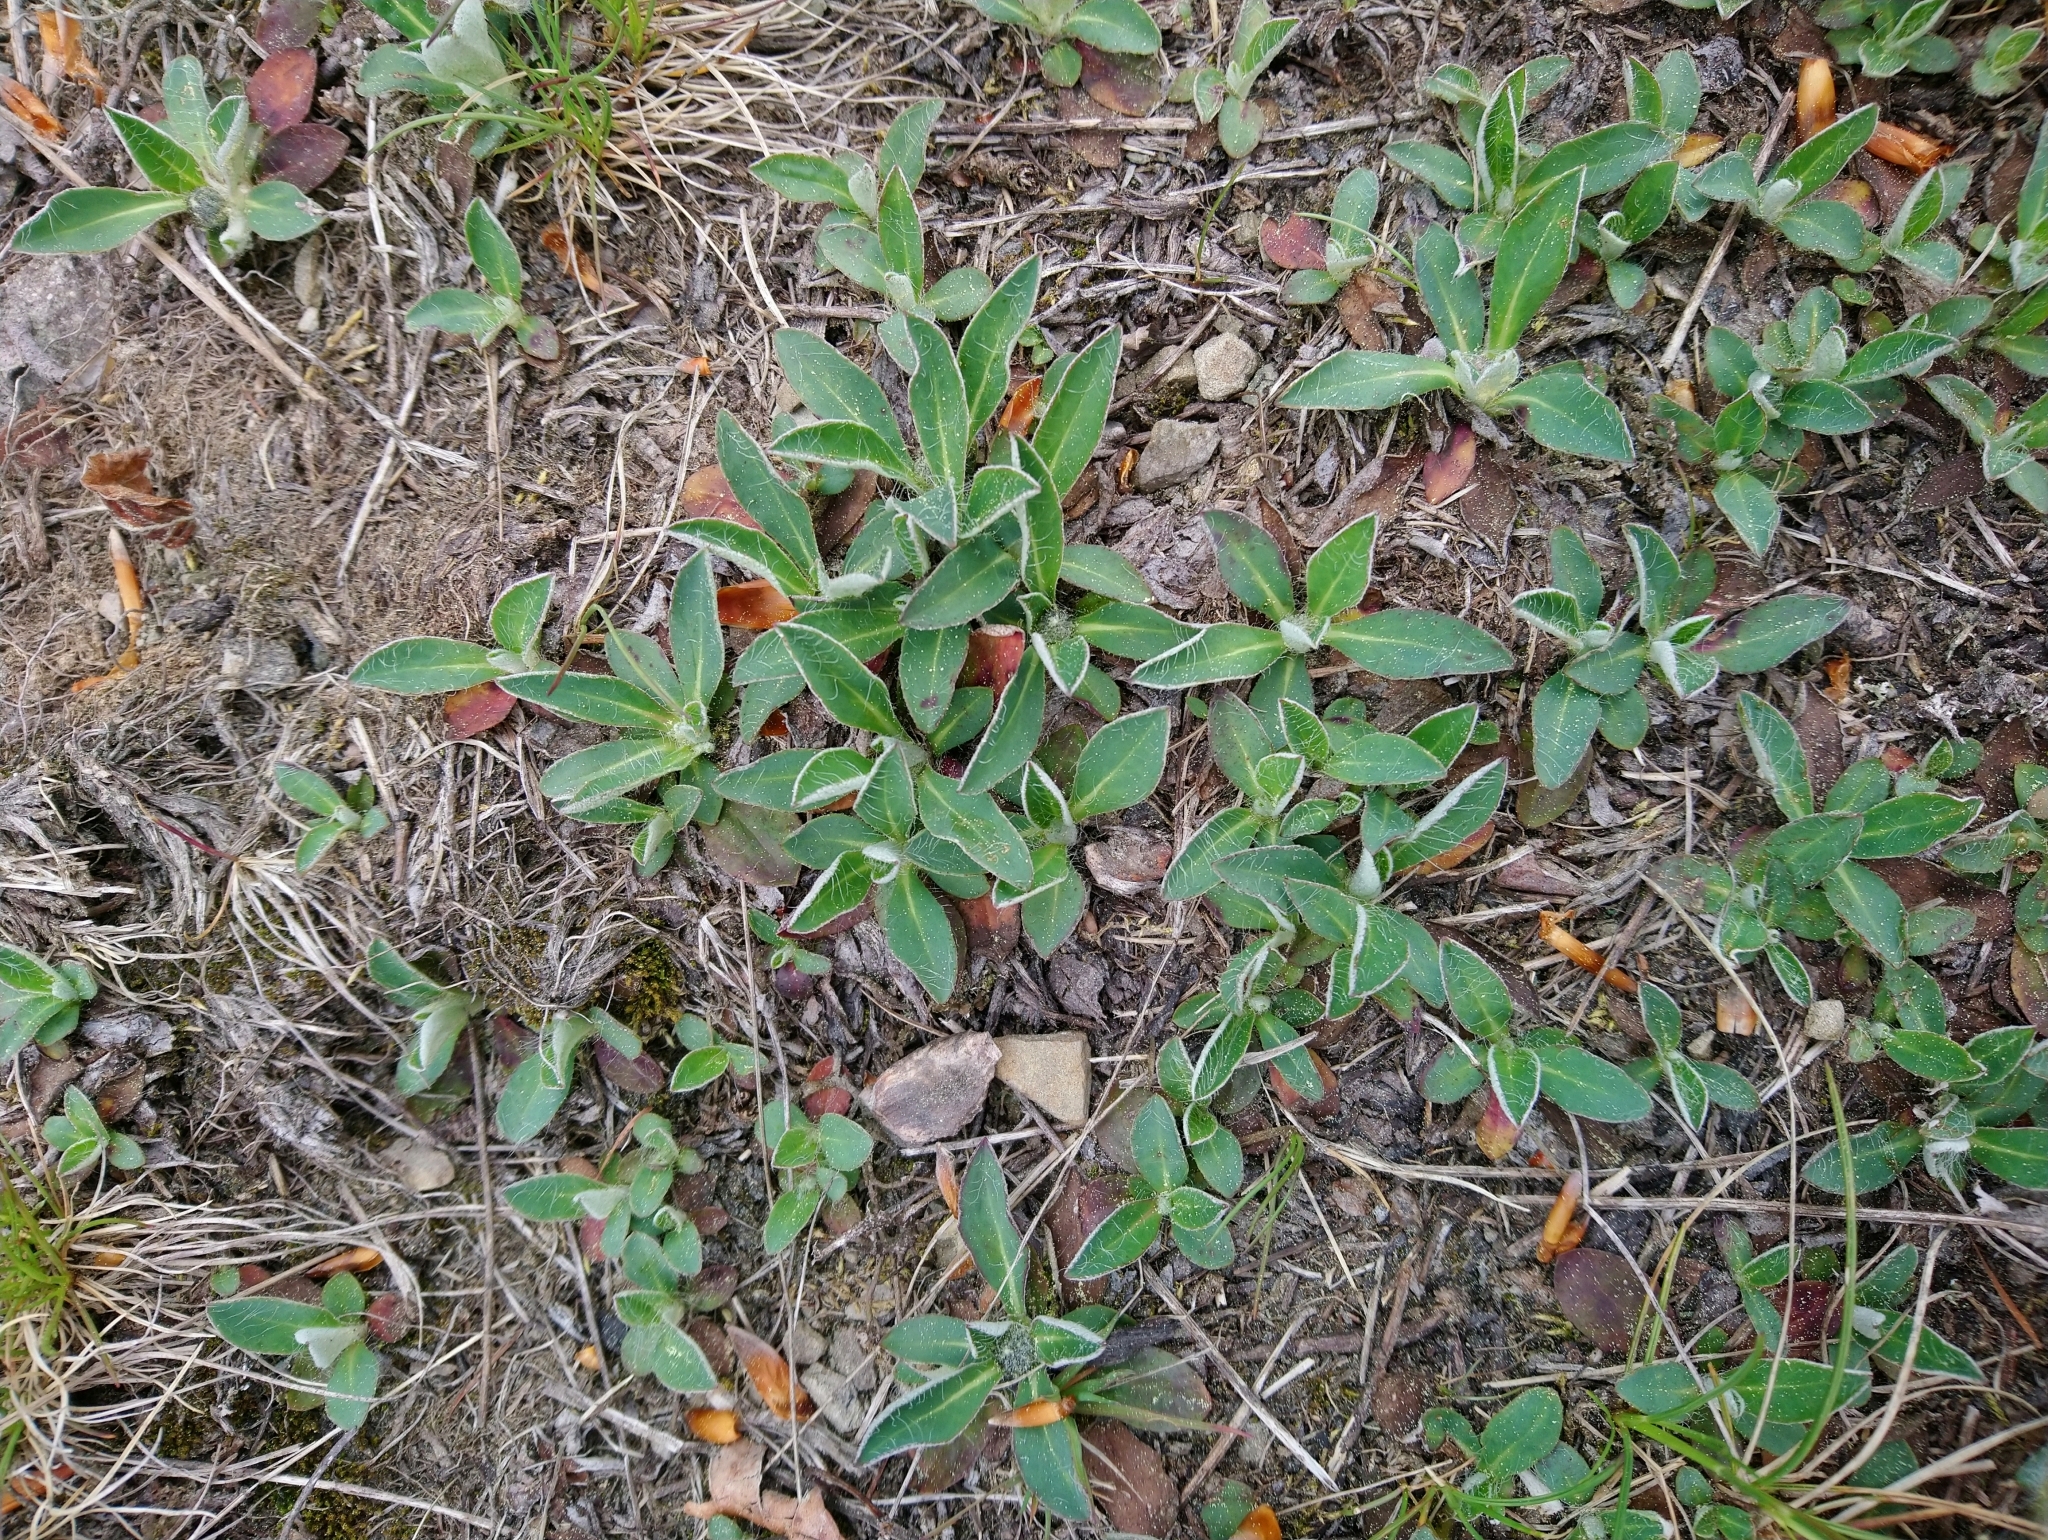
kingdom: Plantae
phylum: Tracheophyta
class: Magnoliopsida
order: Asterales
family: Asteraceae
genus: Pilosella
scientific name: Pilosella officinarum
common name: Mouse-ear hawkweed
